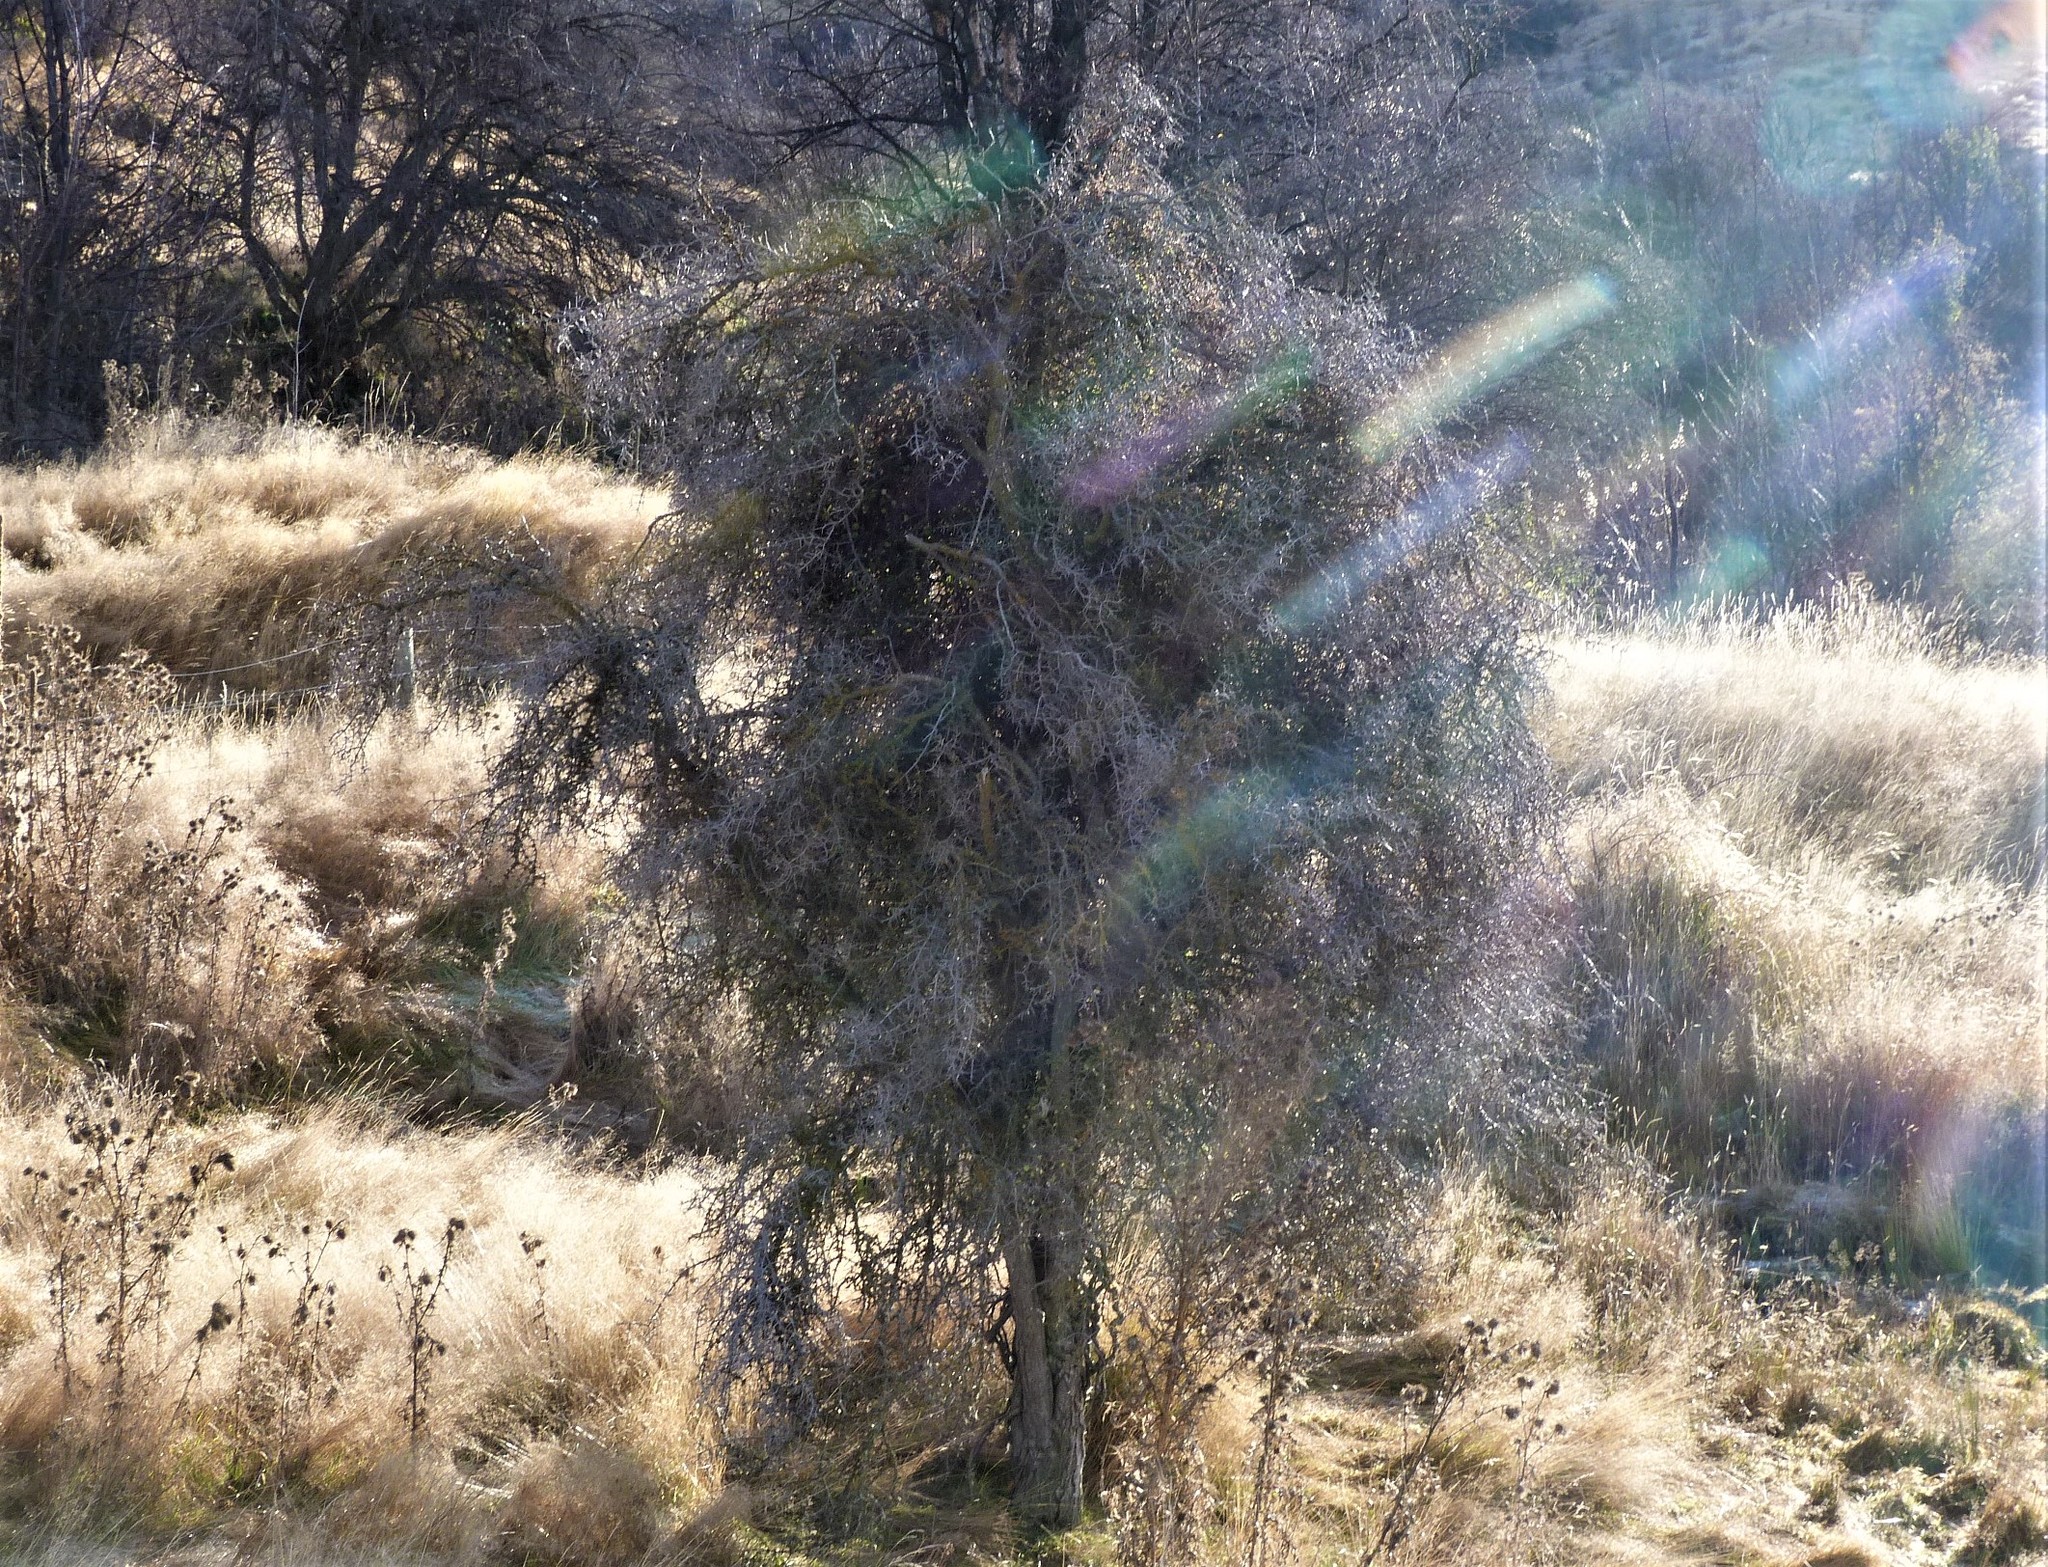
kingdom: Plantae
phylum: Tracheophyta
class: Magnoliopsida
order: Rosales
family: Rhamnaceae
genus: Discaria
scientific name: Discaria toumatou
